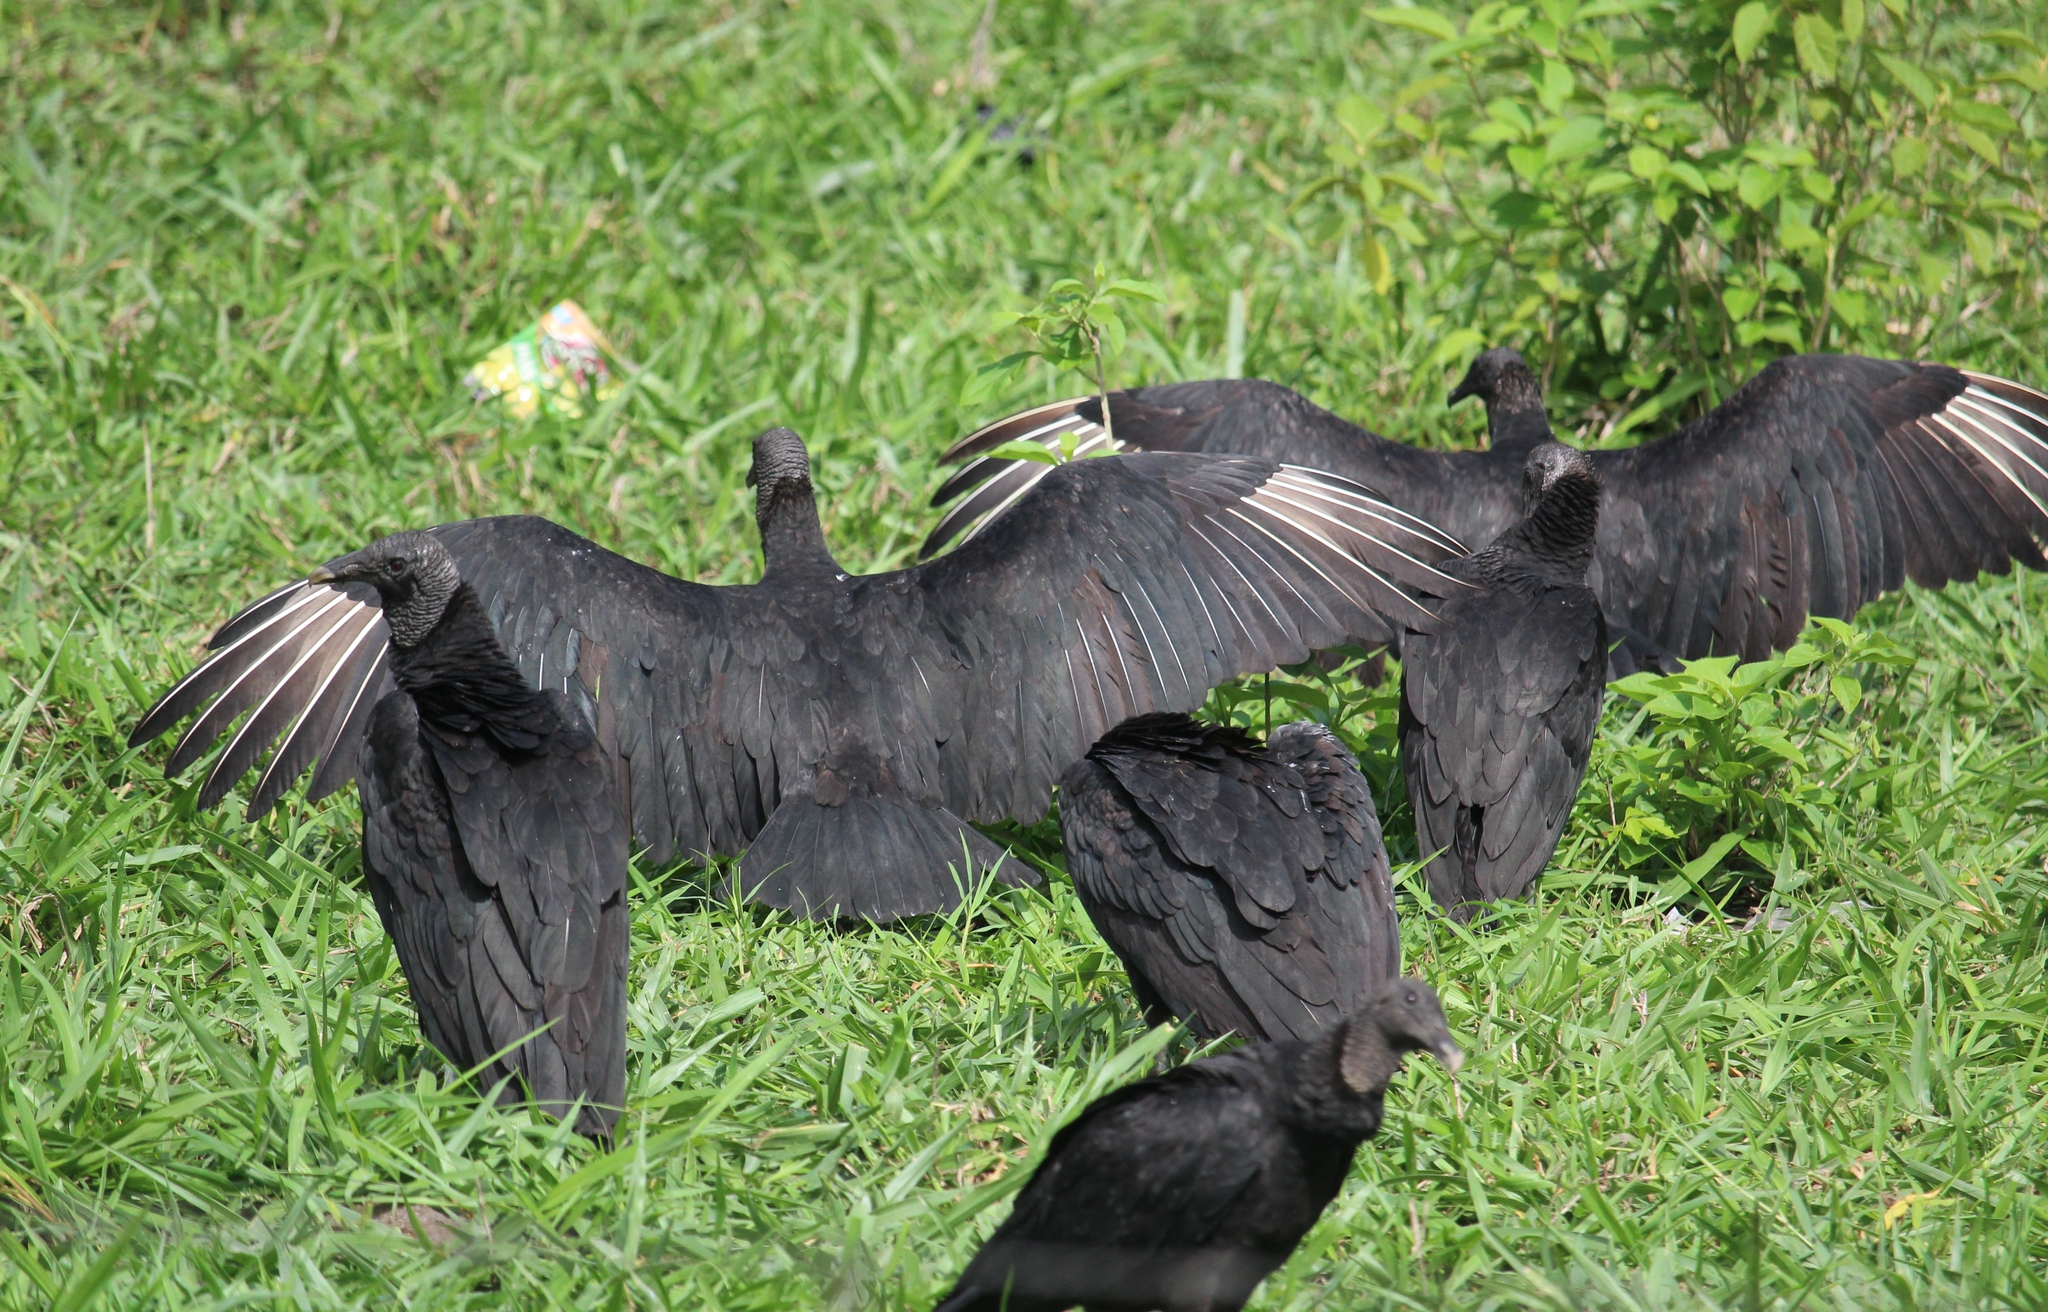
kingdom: Animalia
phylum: Chordata
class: Aves
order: Accipitriformes
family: Cathartidae
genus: Coragyps
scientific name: Coragyps atratus
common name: Black vulture
